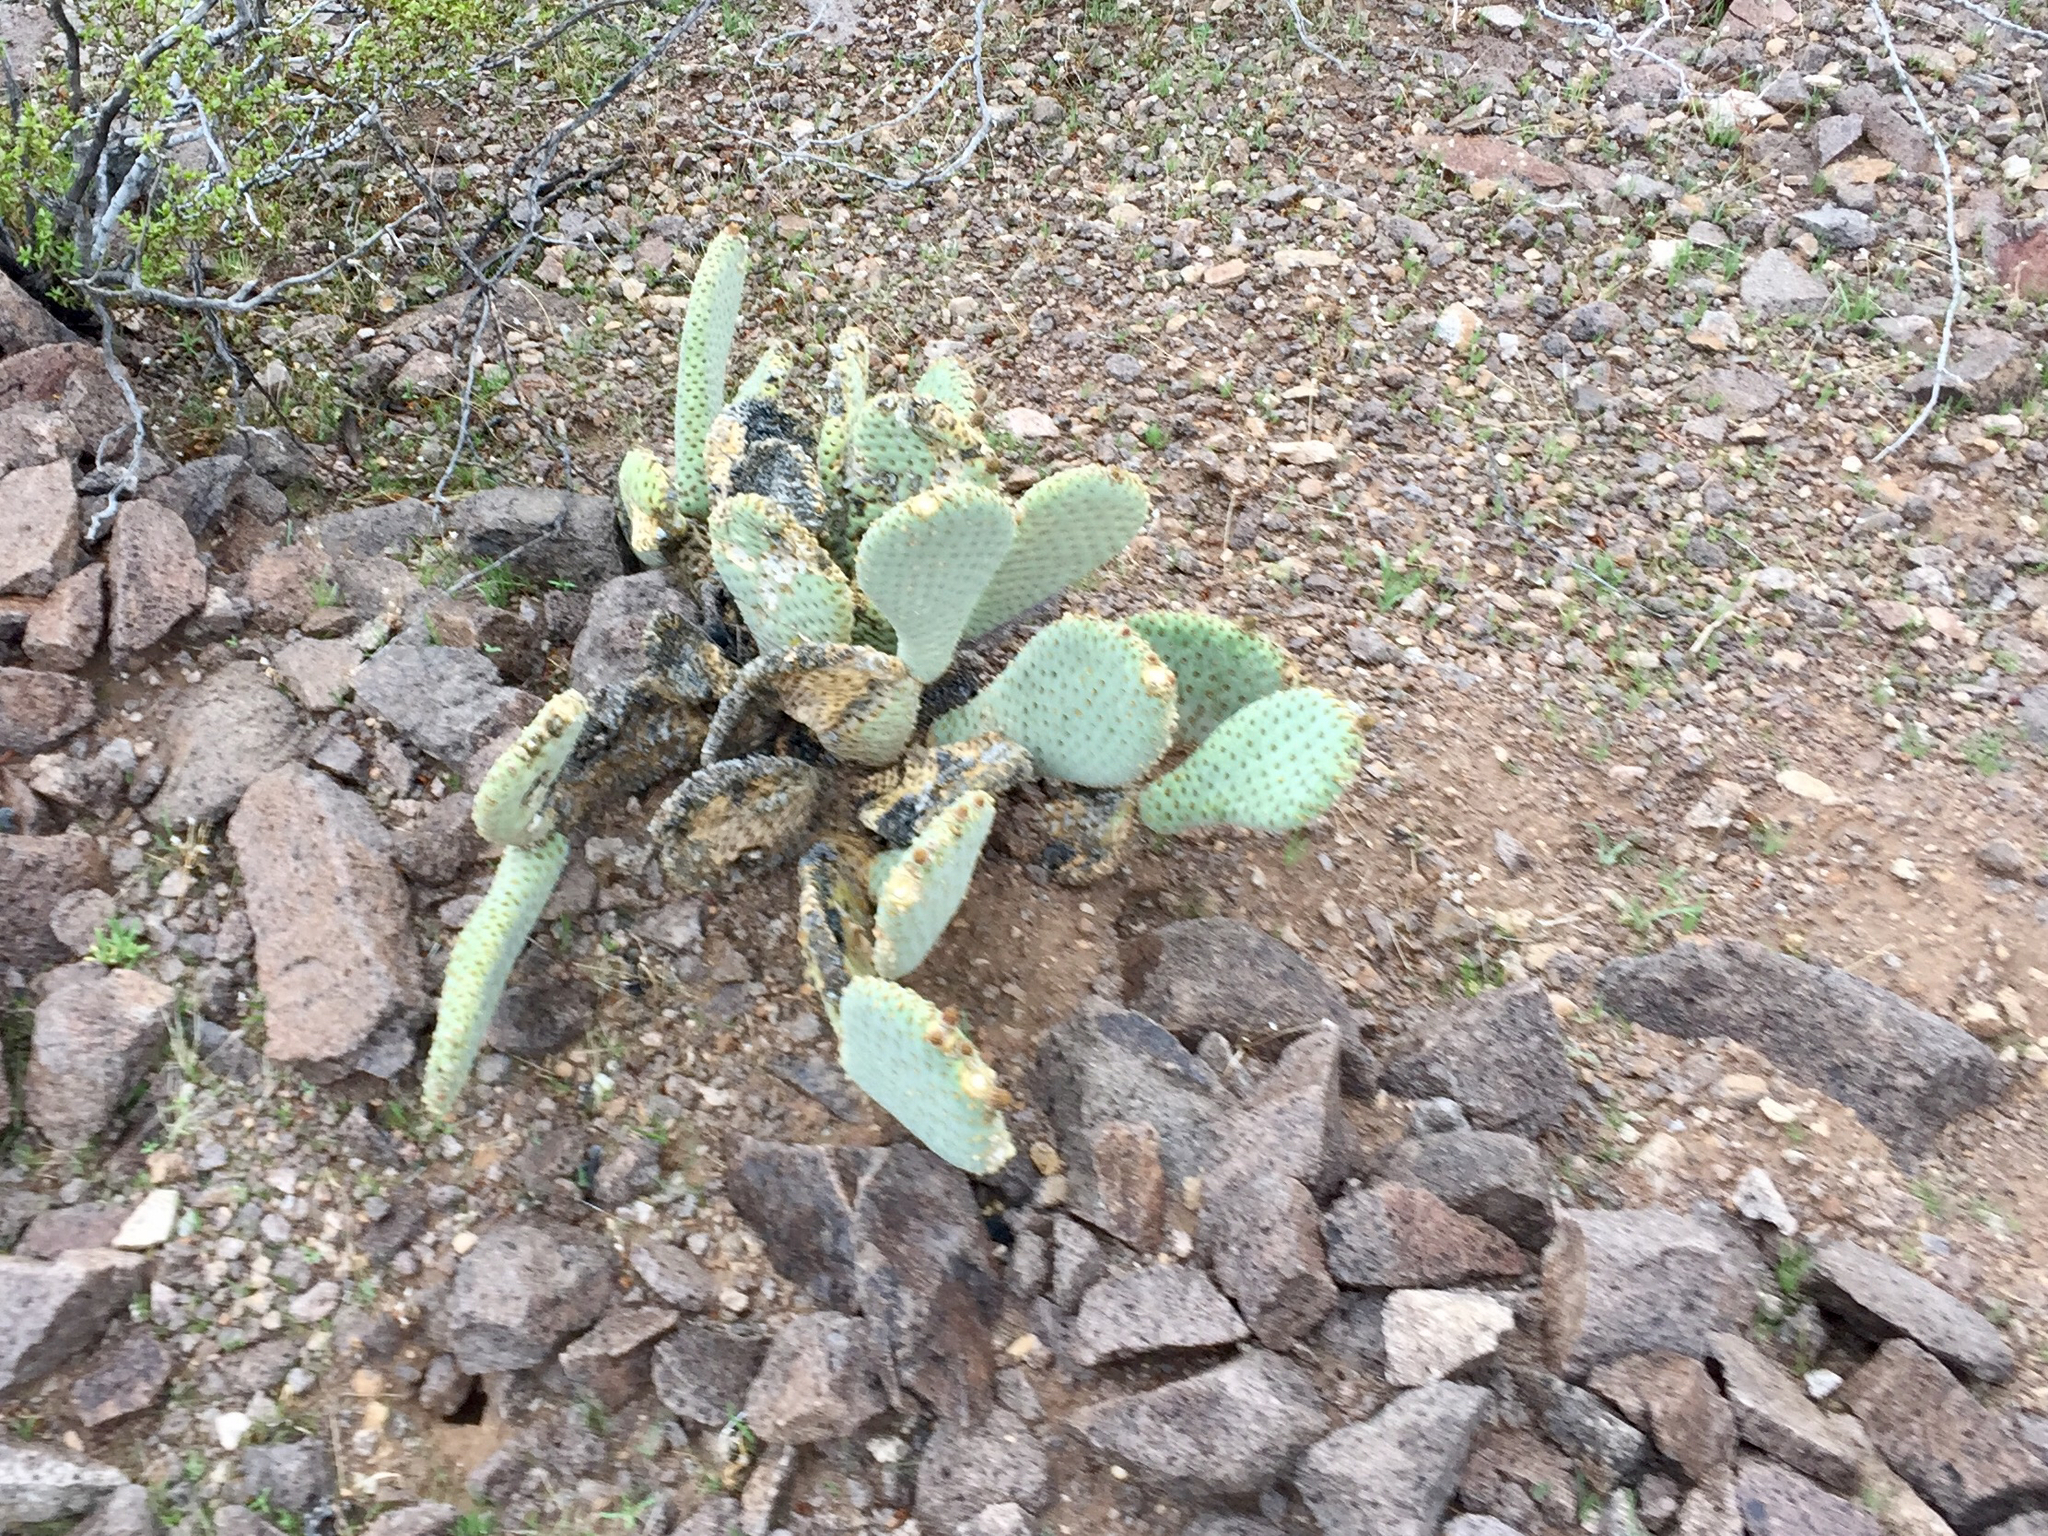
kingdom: Plantae
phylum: Tracheophyta
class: Magnoliopsida
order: Caryophyllales
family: Cactaceae
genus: Opuntia
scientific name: Opuntia basilaris
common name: Beavertail prickly-pear
